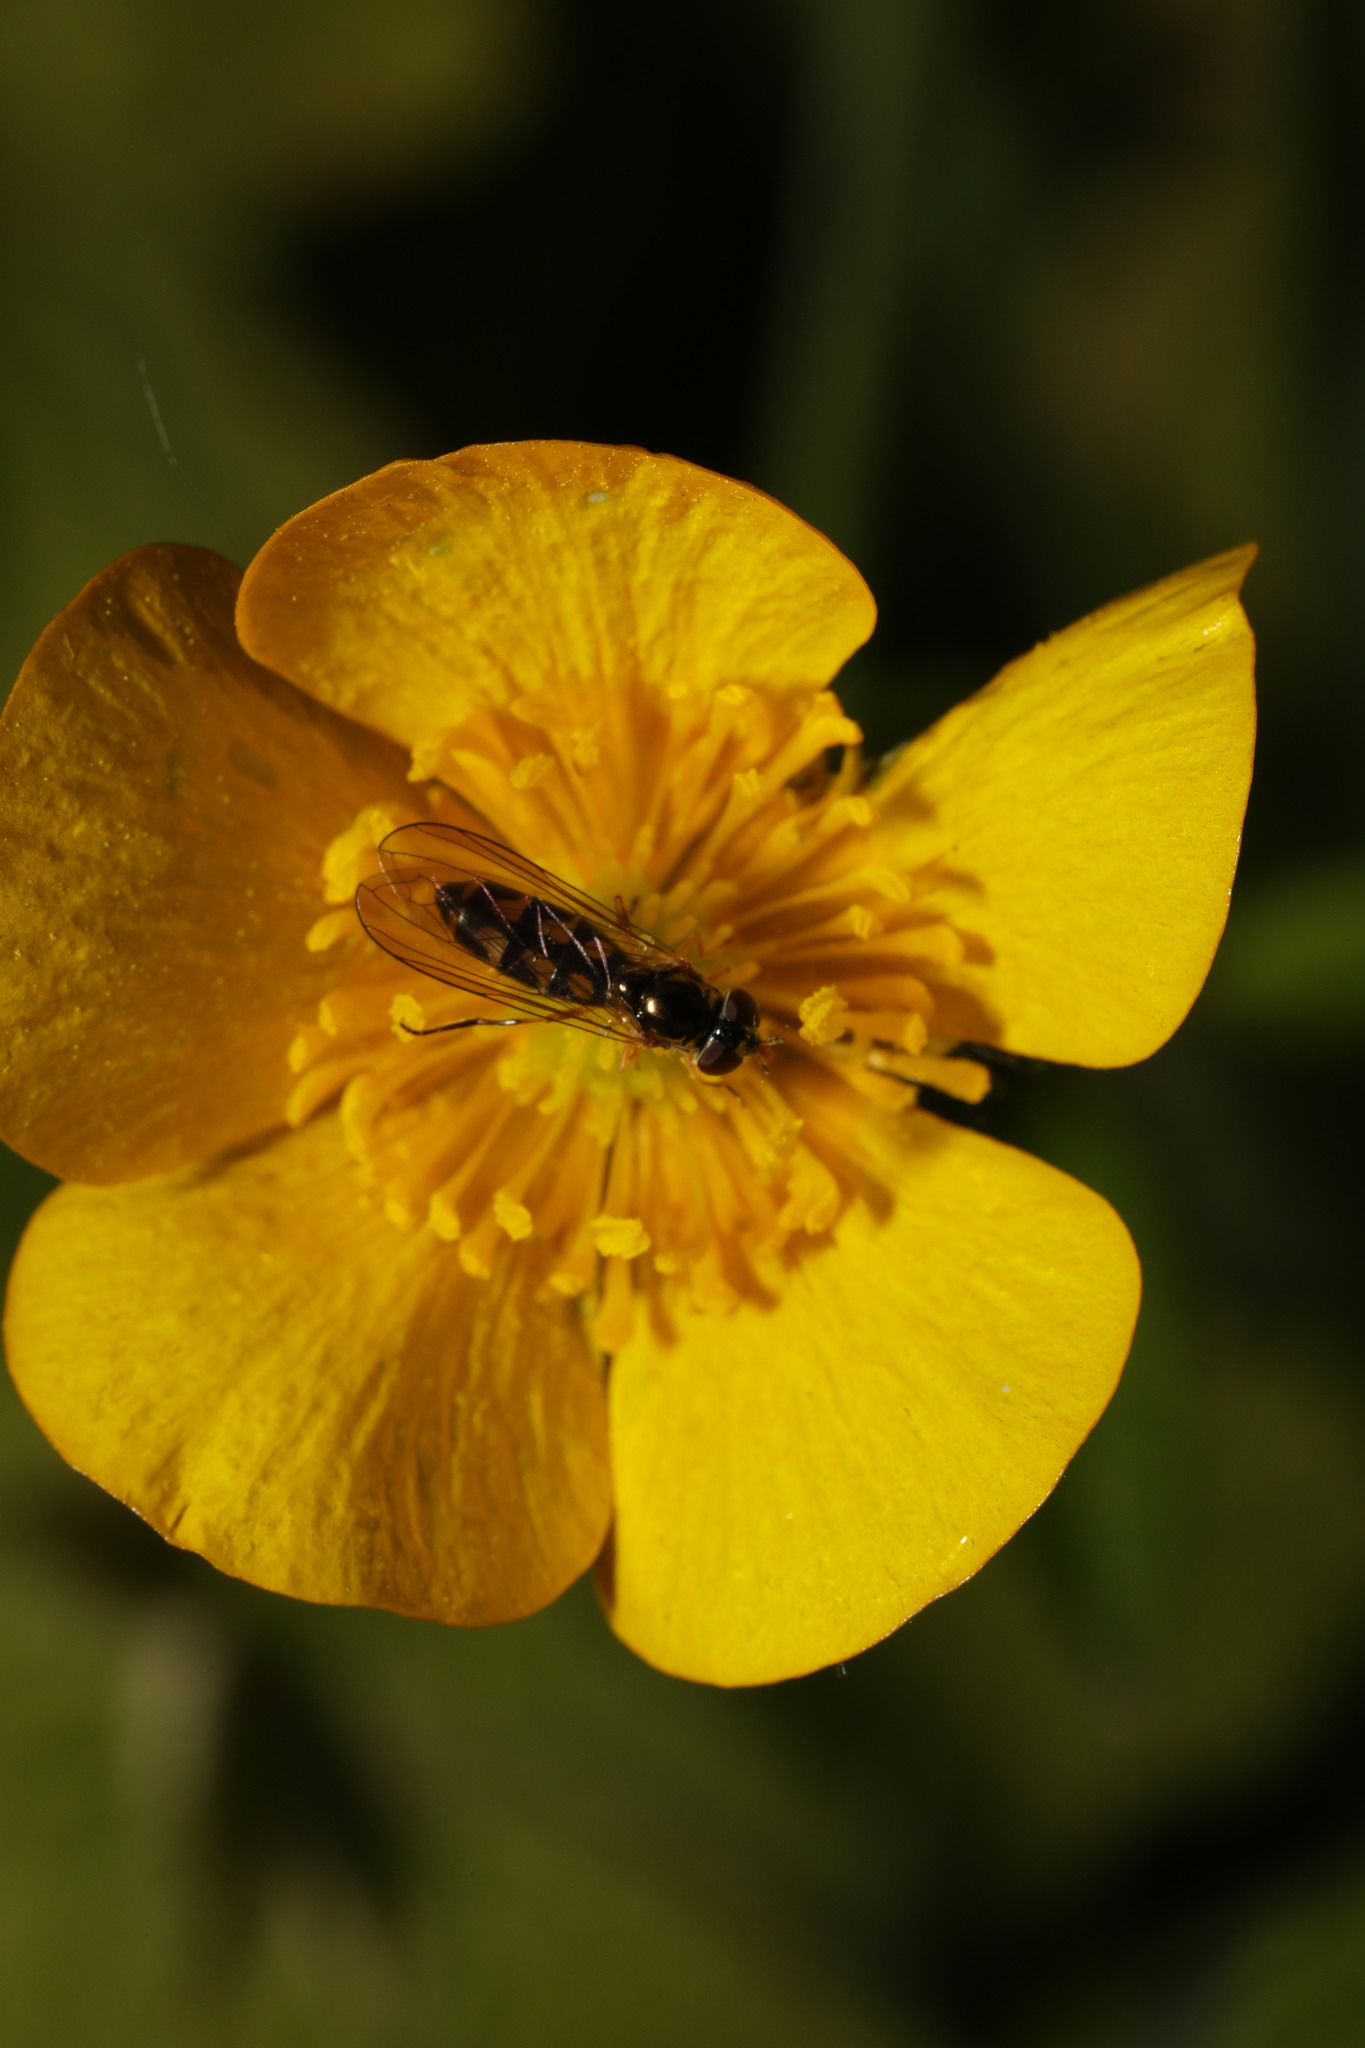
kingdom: Animalia
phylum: Arthropoda
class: Insecta
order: Diptera
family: Syrphidae
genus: Melanostoma
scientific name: Melanostoma
